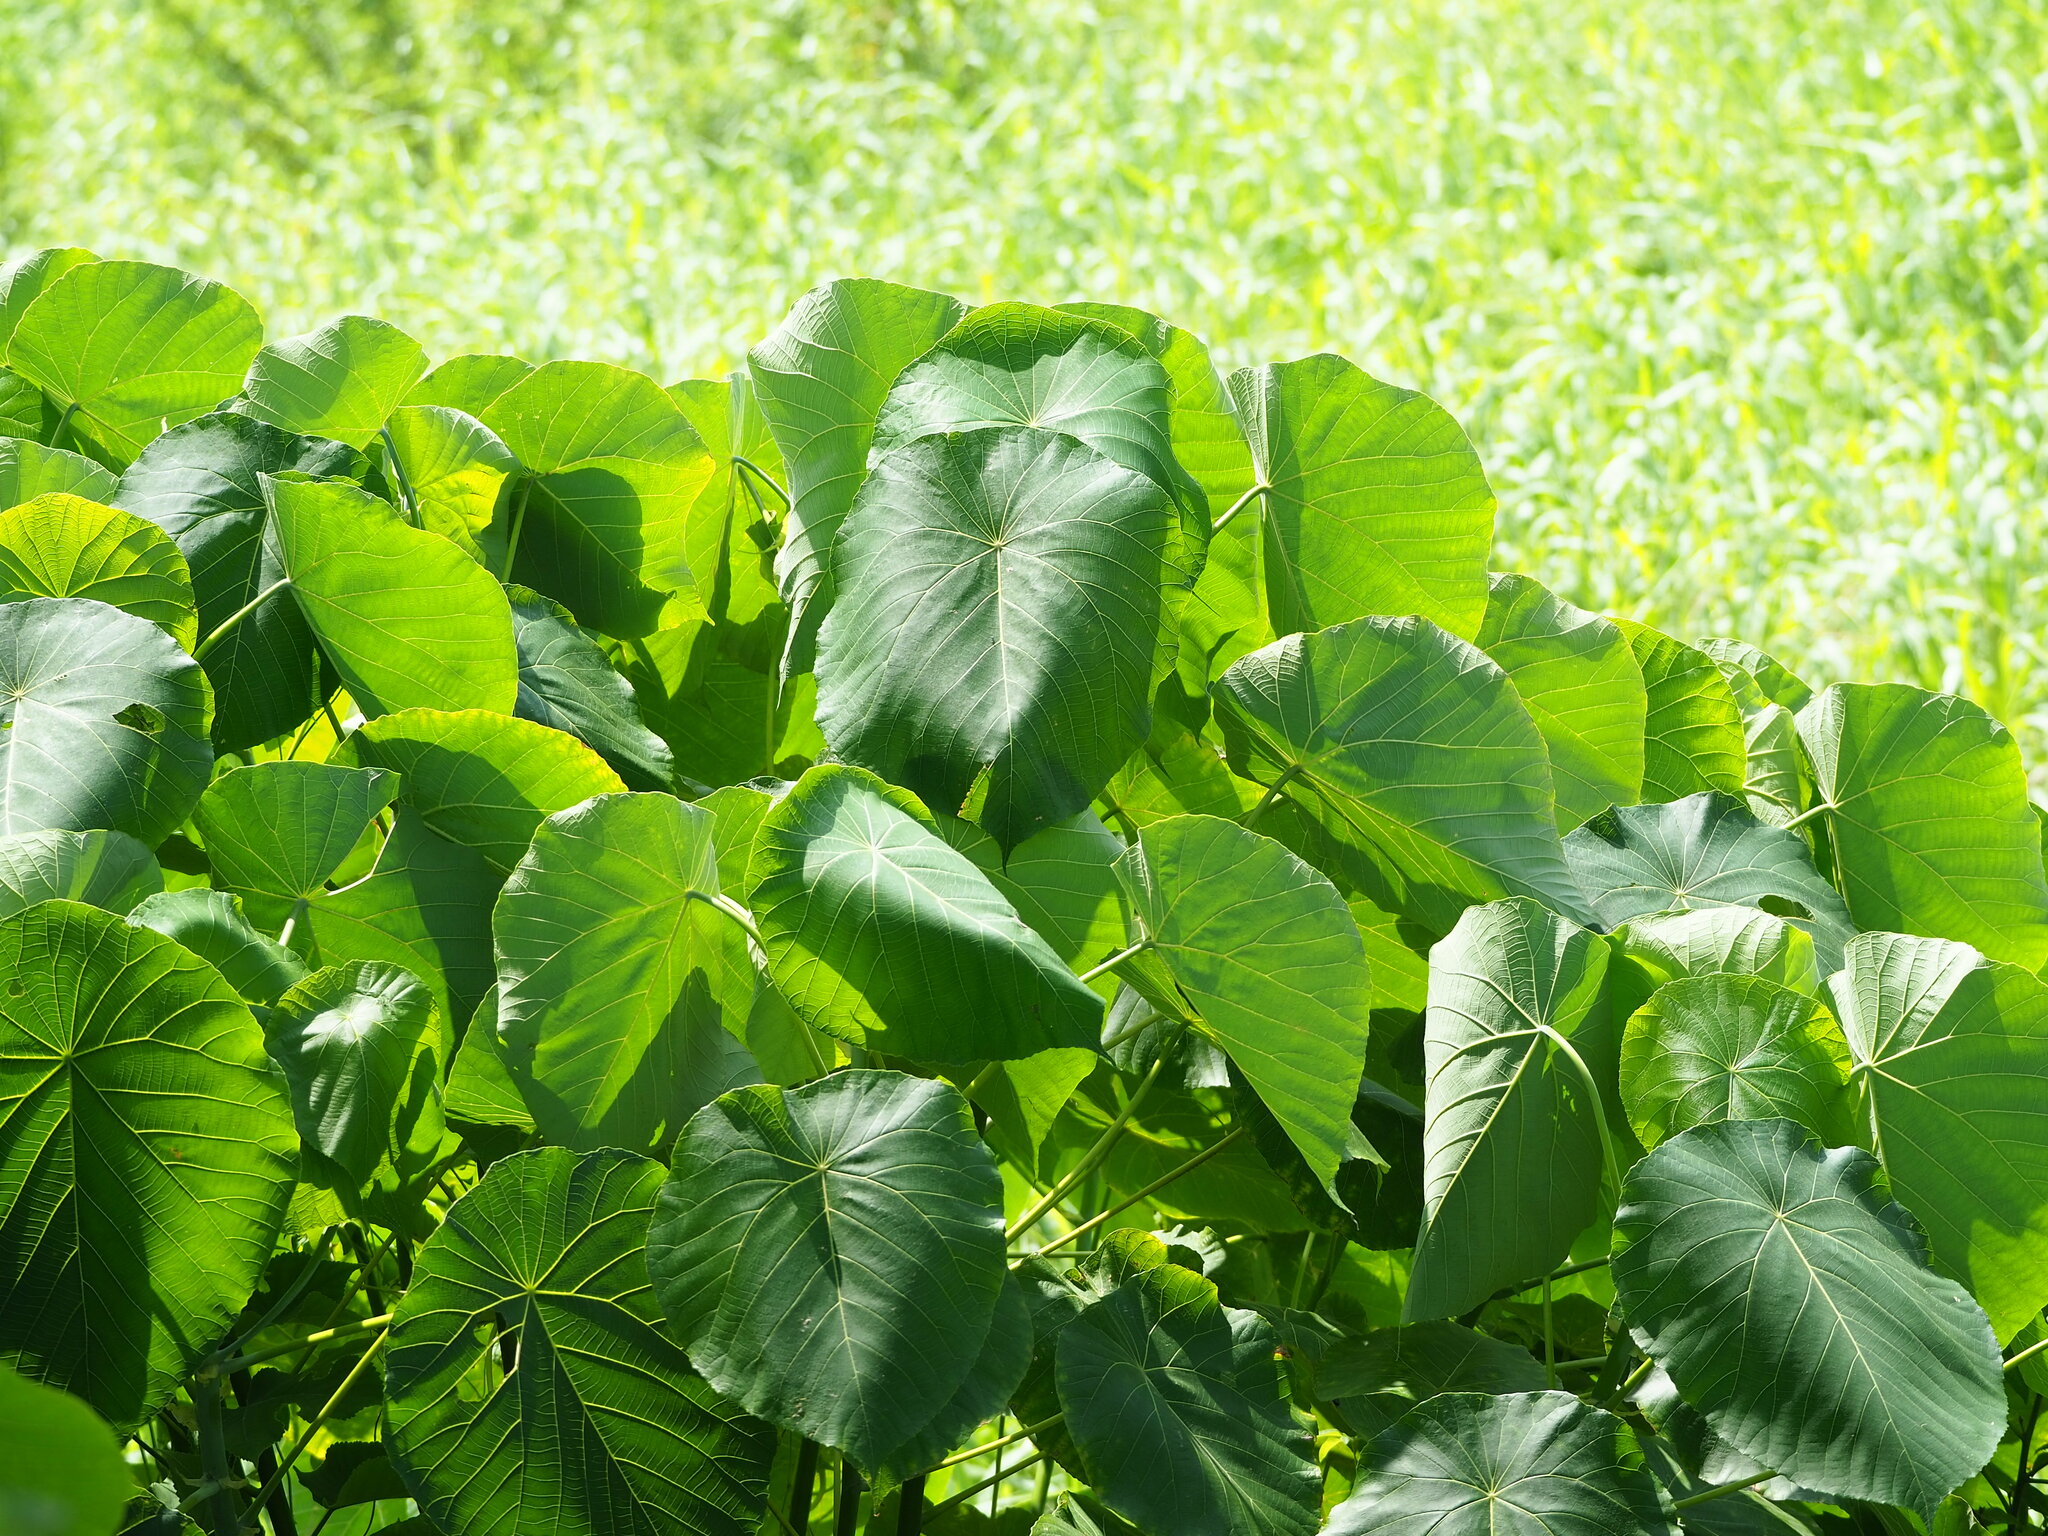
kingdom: Plantae
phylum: Tracheophyta
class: Magnoliopsida
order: Malpighiales
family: Euphorbiaceae
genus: Macaranga
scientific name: Macaranga tanarius
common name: Parasol leaf tree
